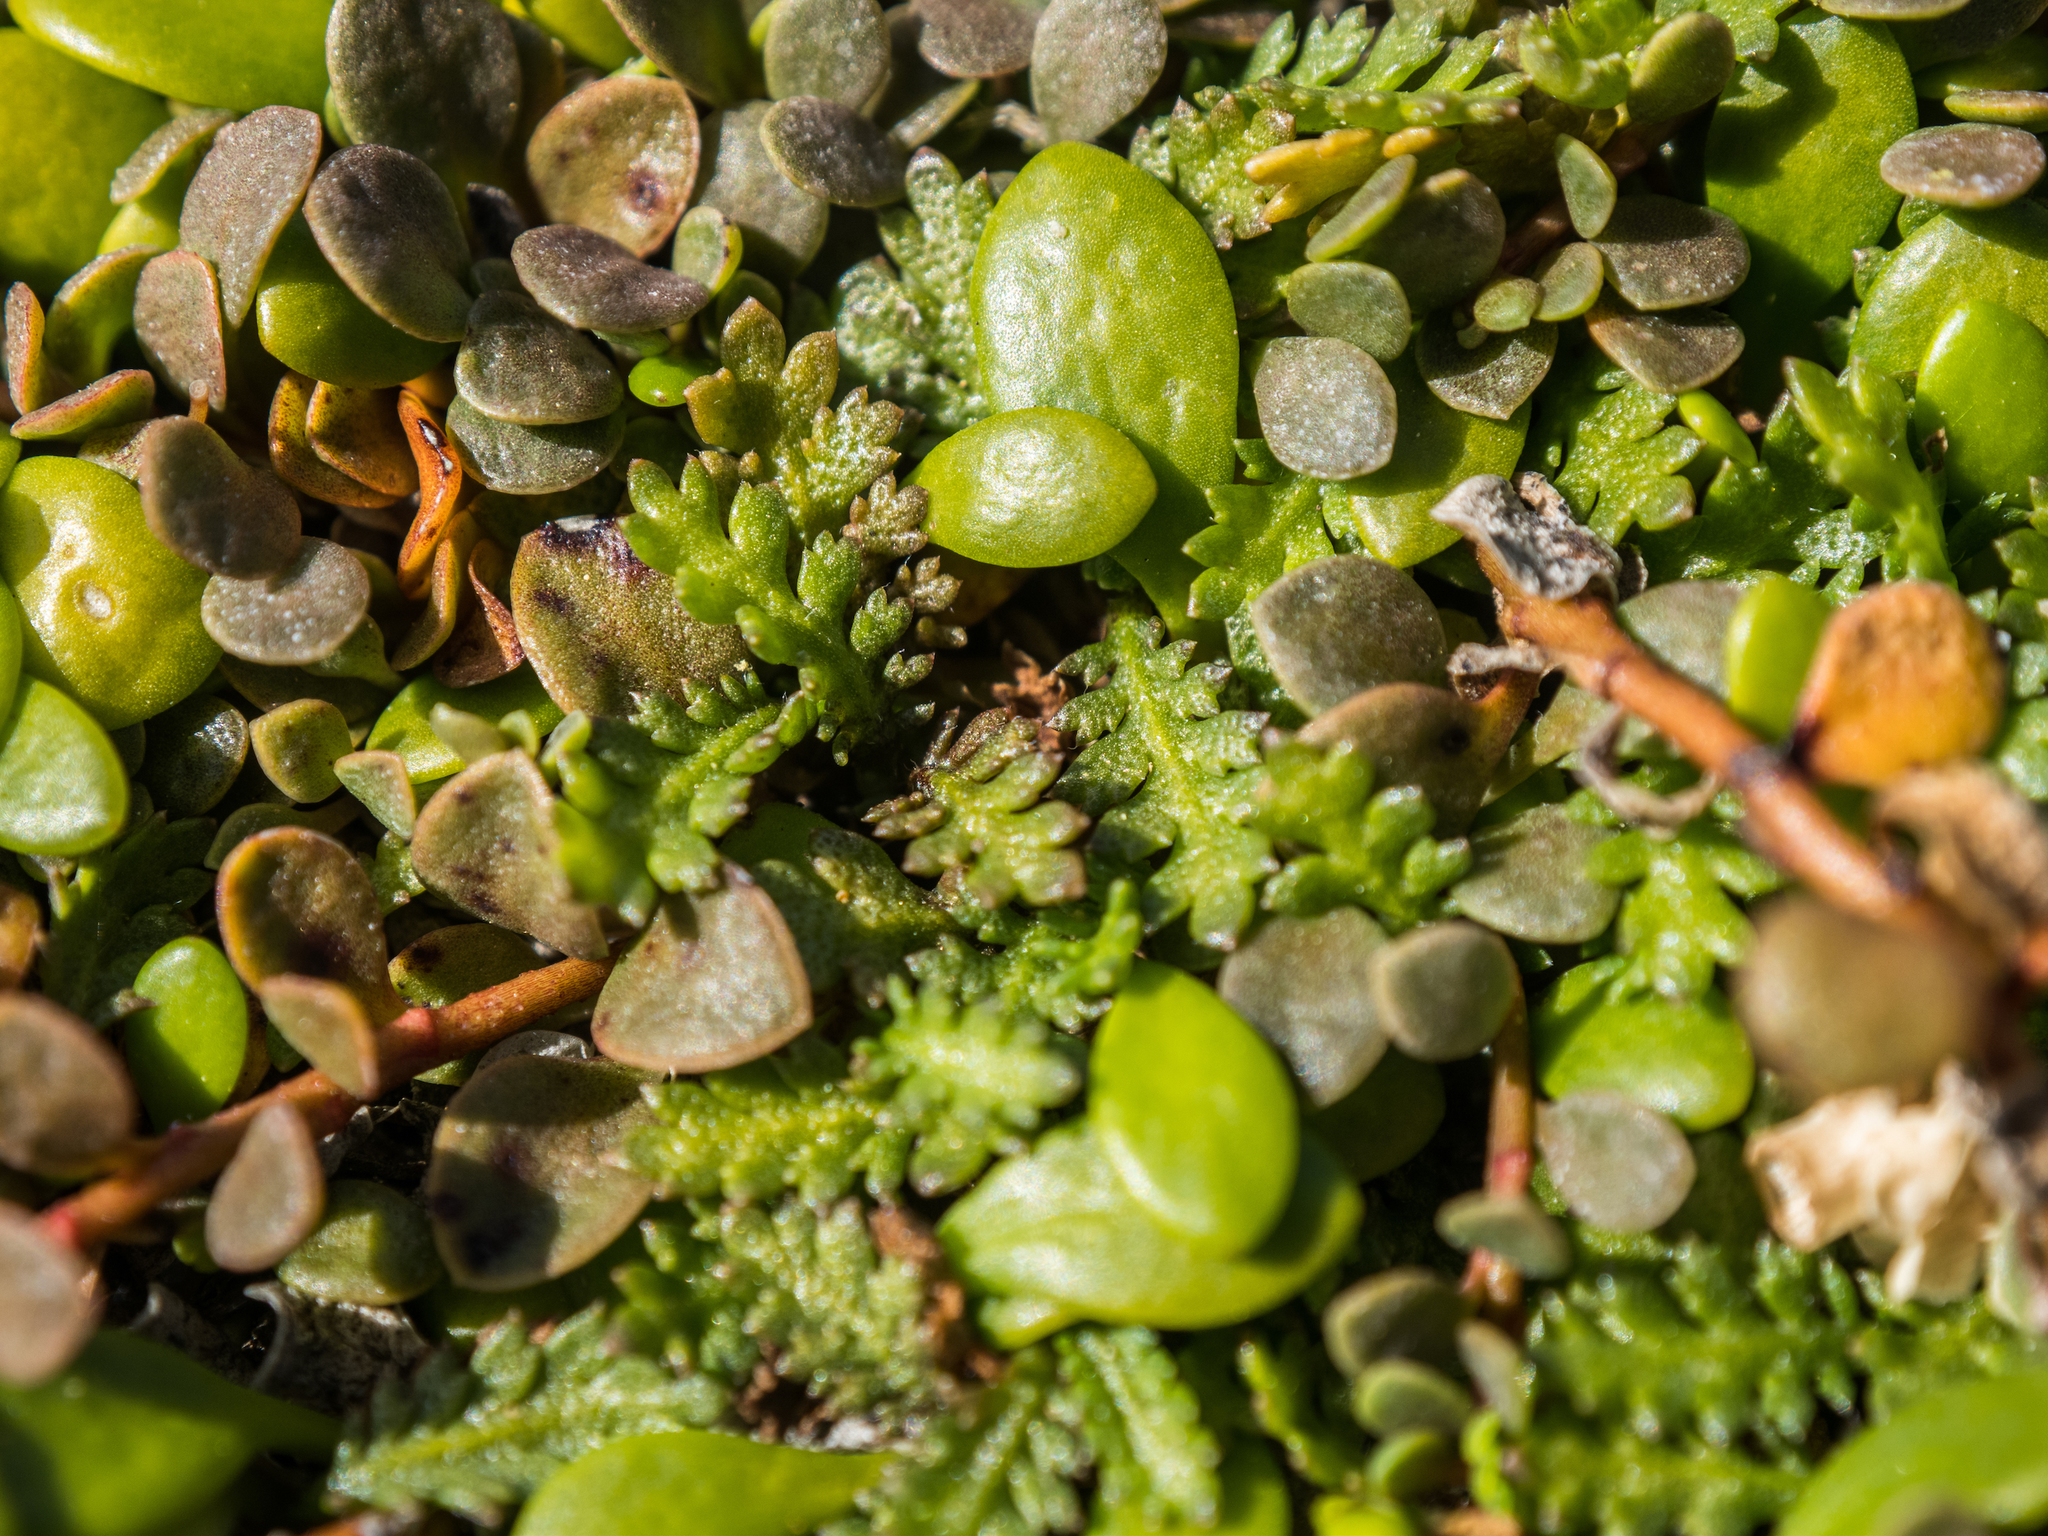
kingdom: Plantae
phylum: Tracheophyta
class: Magnoliopsida
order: Asterales
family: Asteraceae
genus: Leptinella
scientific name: Leptinella dioica
